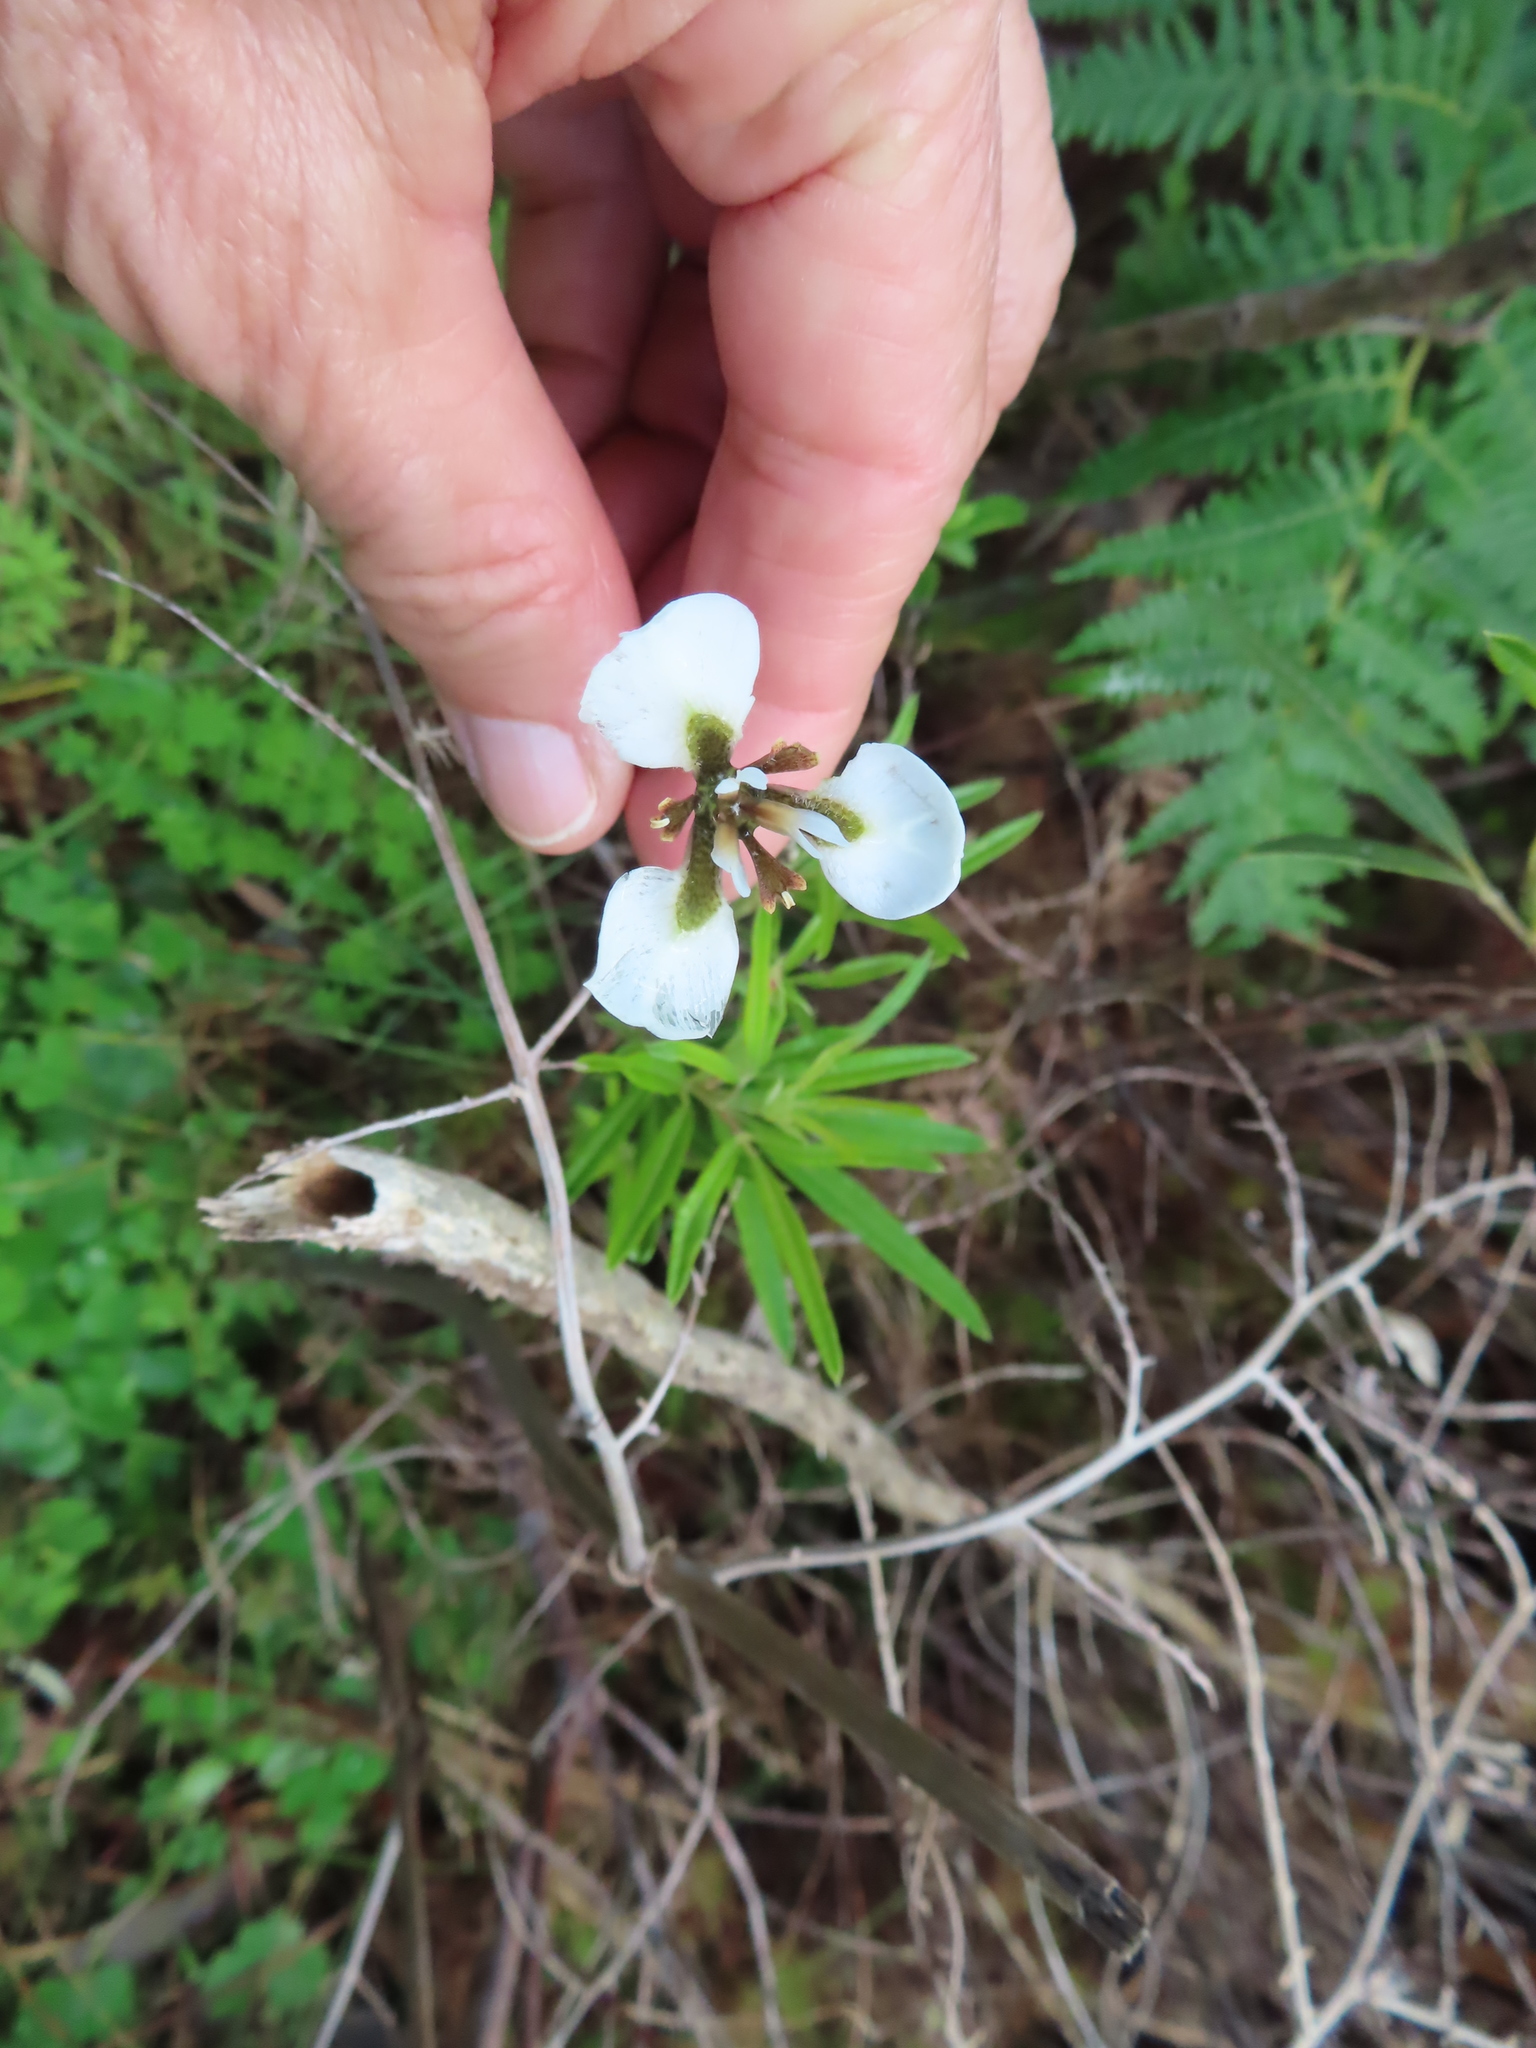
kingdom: Plantae
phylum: Tracheophyta
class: Liliopsida
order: Asparagales
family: Iridaceae
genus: Moraea
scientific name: Moraea tricuspidata
